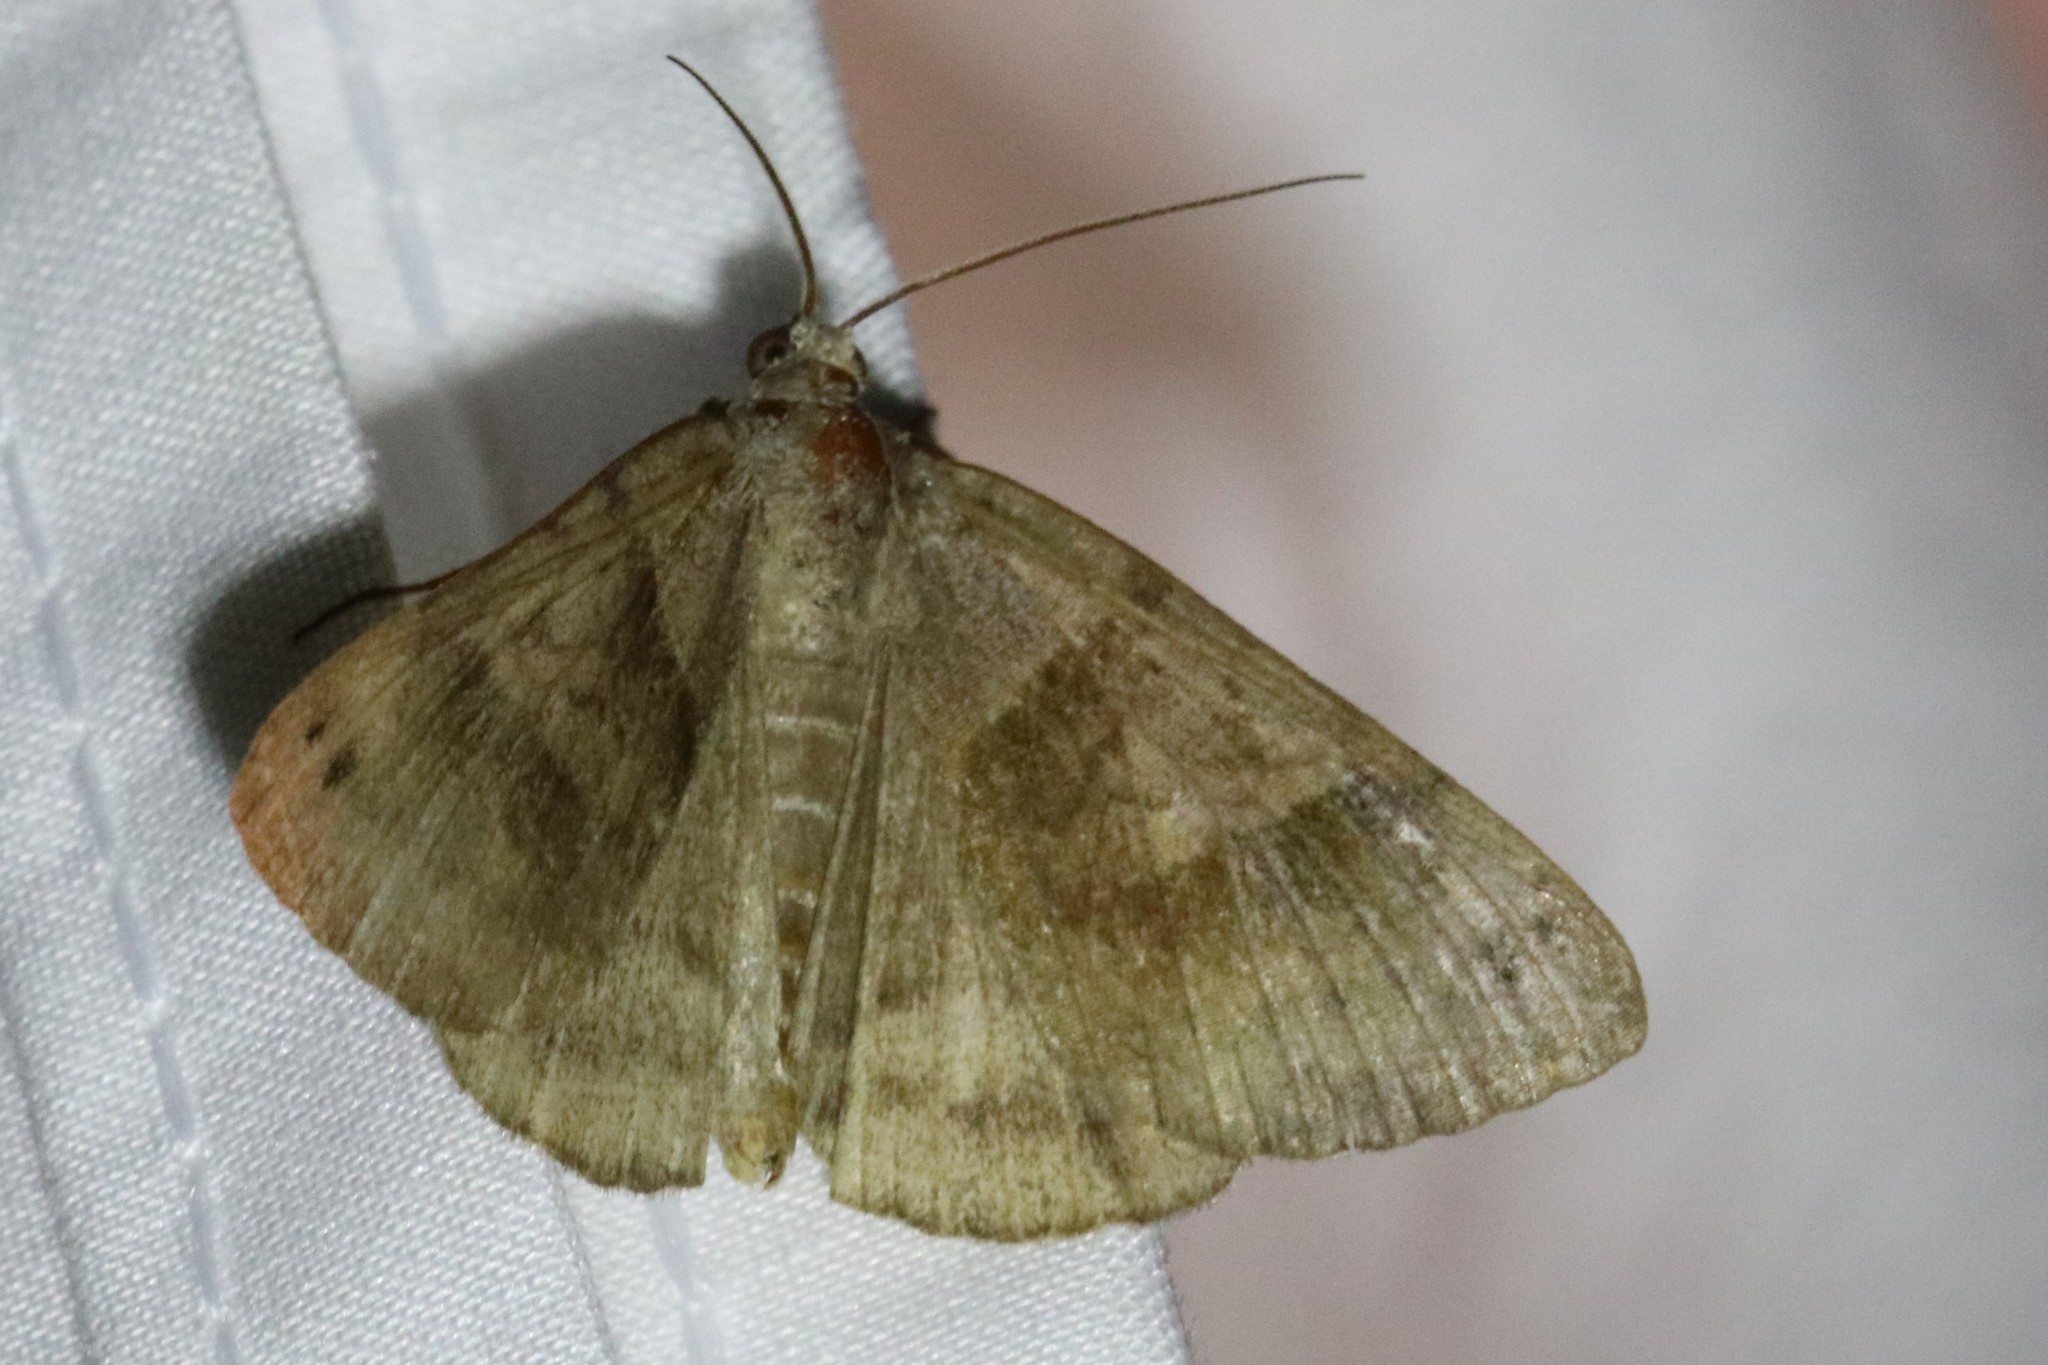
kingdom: Animalia
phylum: Arthropoda
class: Insecta
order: Lepidoptera
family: Erebidae
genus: Caenurgina
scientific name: Caenurgina crassiuscula
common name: Double-barred
